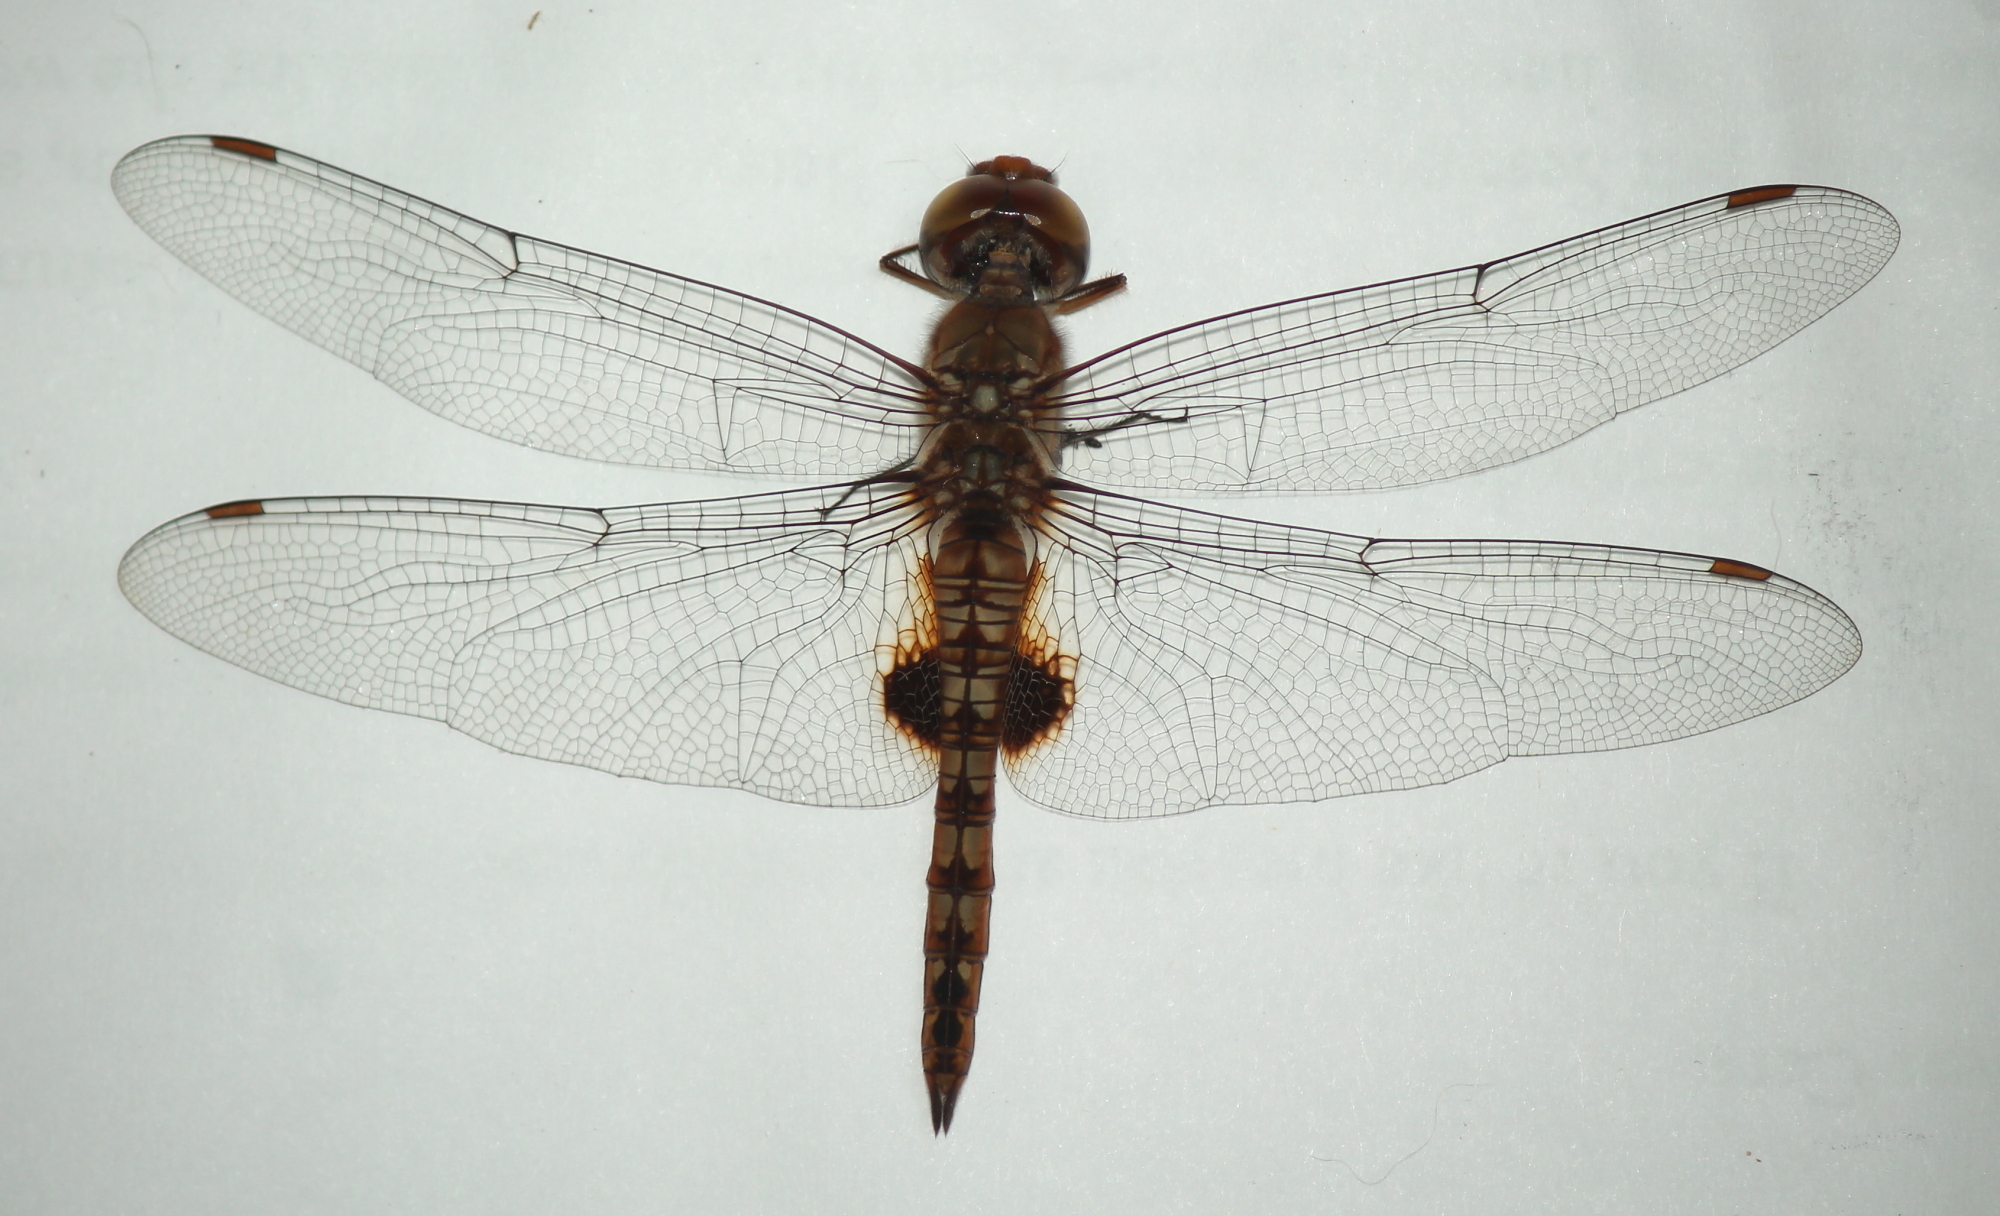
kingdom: Animalia
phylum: Arthropoda
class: Insecta
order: Odonata
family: Libellulidae
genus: Pantala
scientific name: Pantala hymenaea
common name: Spot-winged glider
